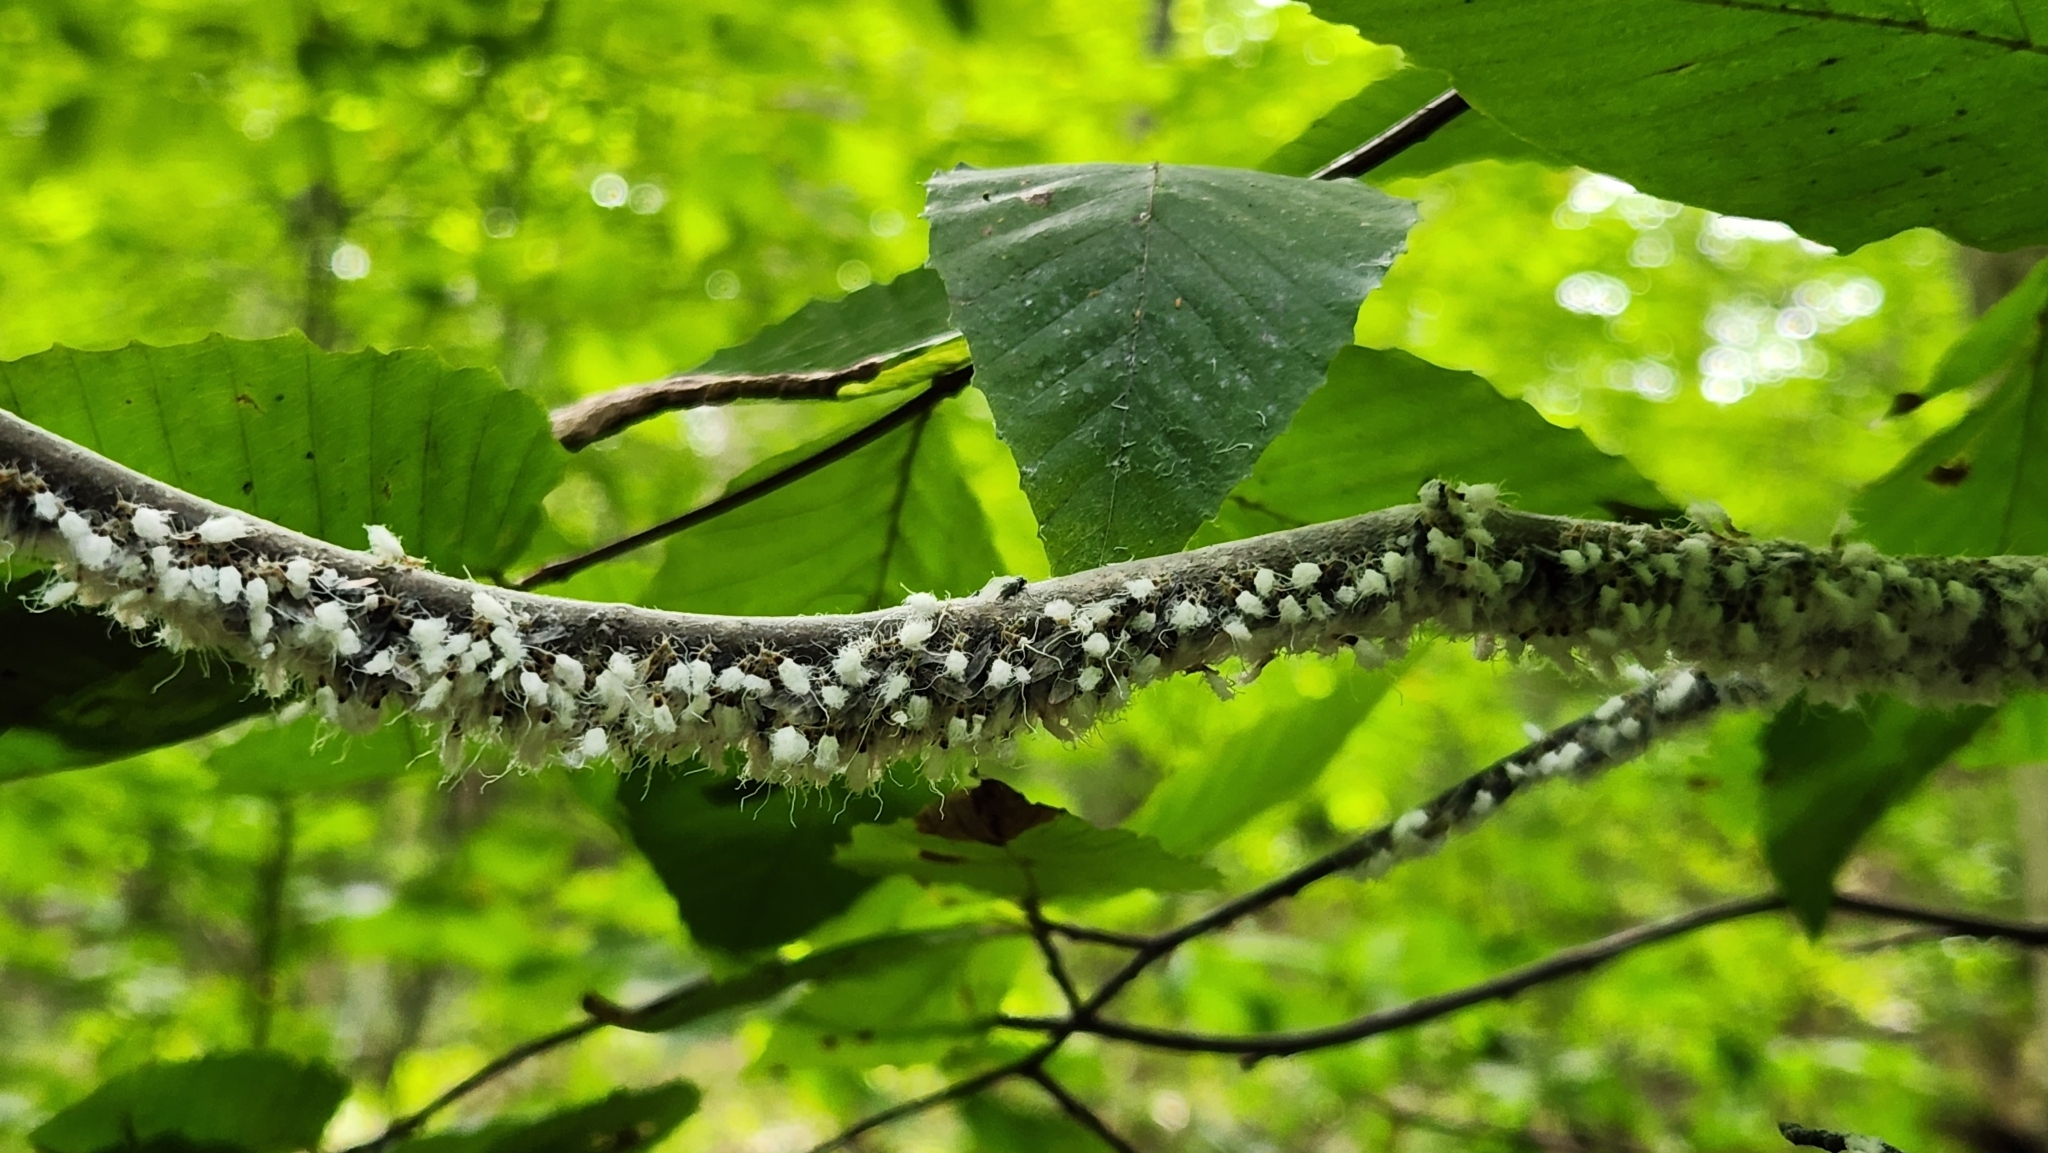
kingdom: Animalia
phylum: Arthropoda
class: Insecta
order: Hemiptera
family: Aphididae
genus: Grylloprociphilus
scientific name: Grylloprociphilus imbricator
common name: Beech blight aphid
